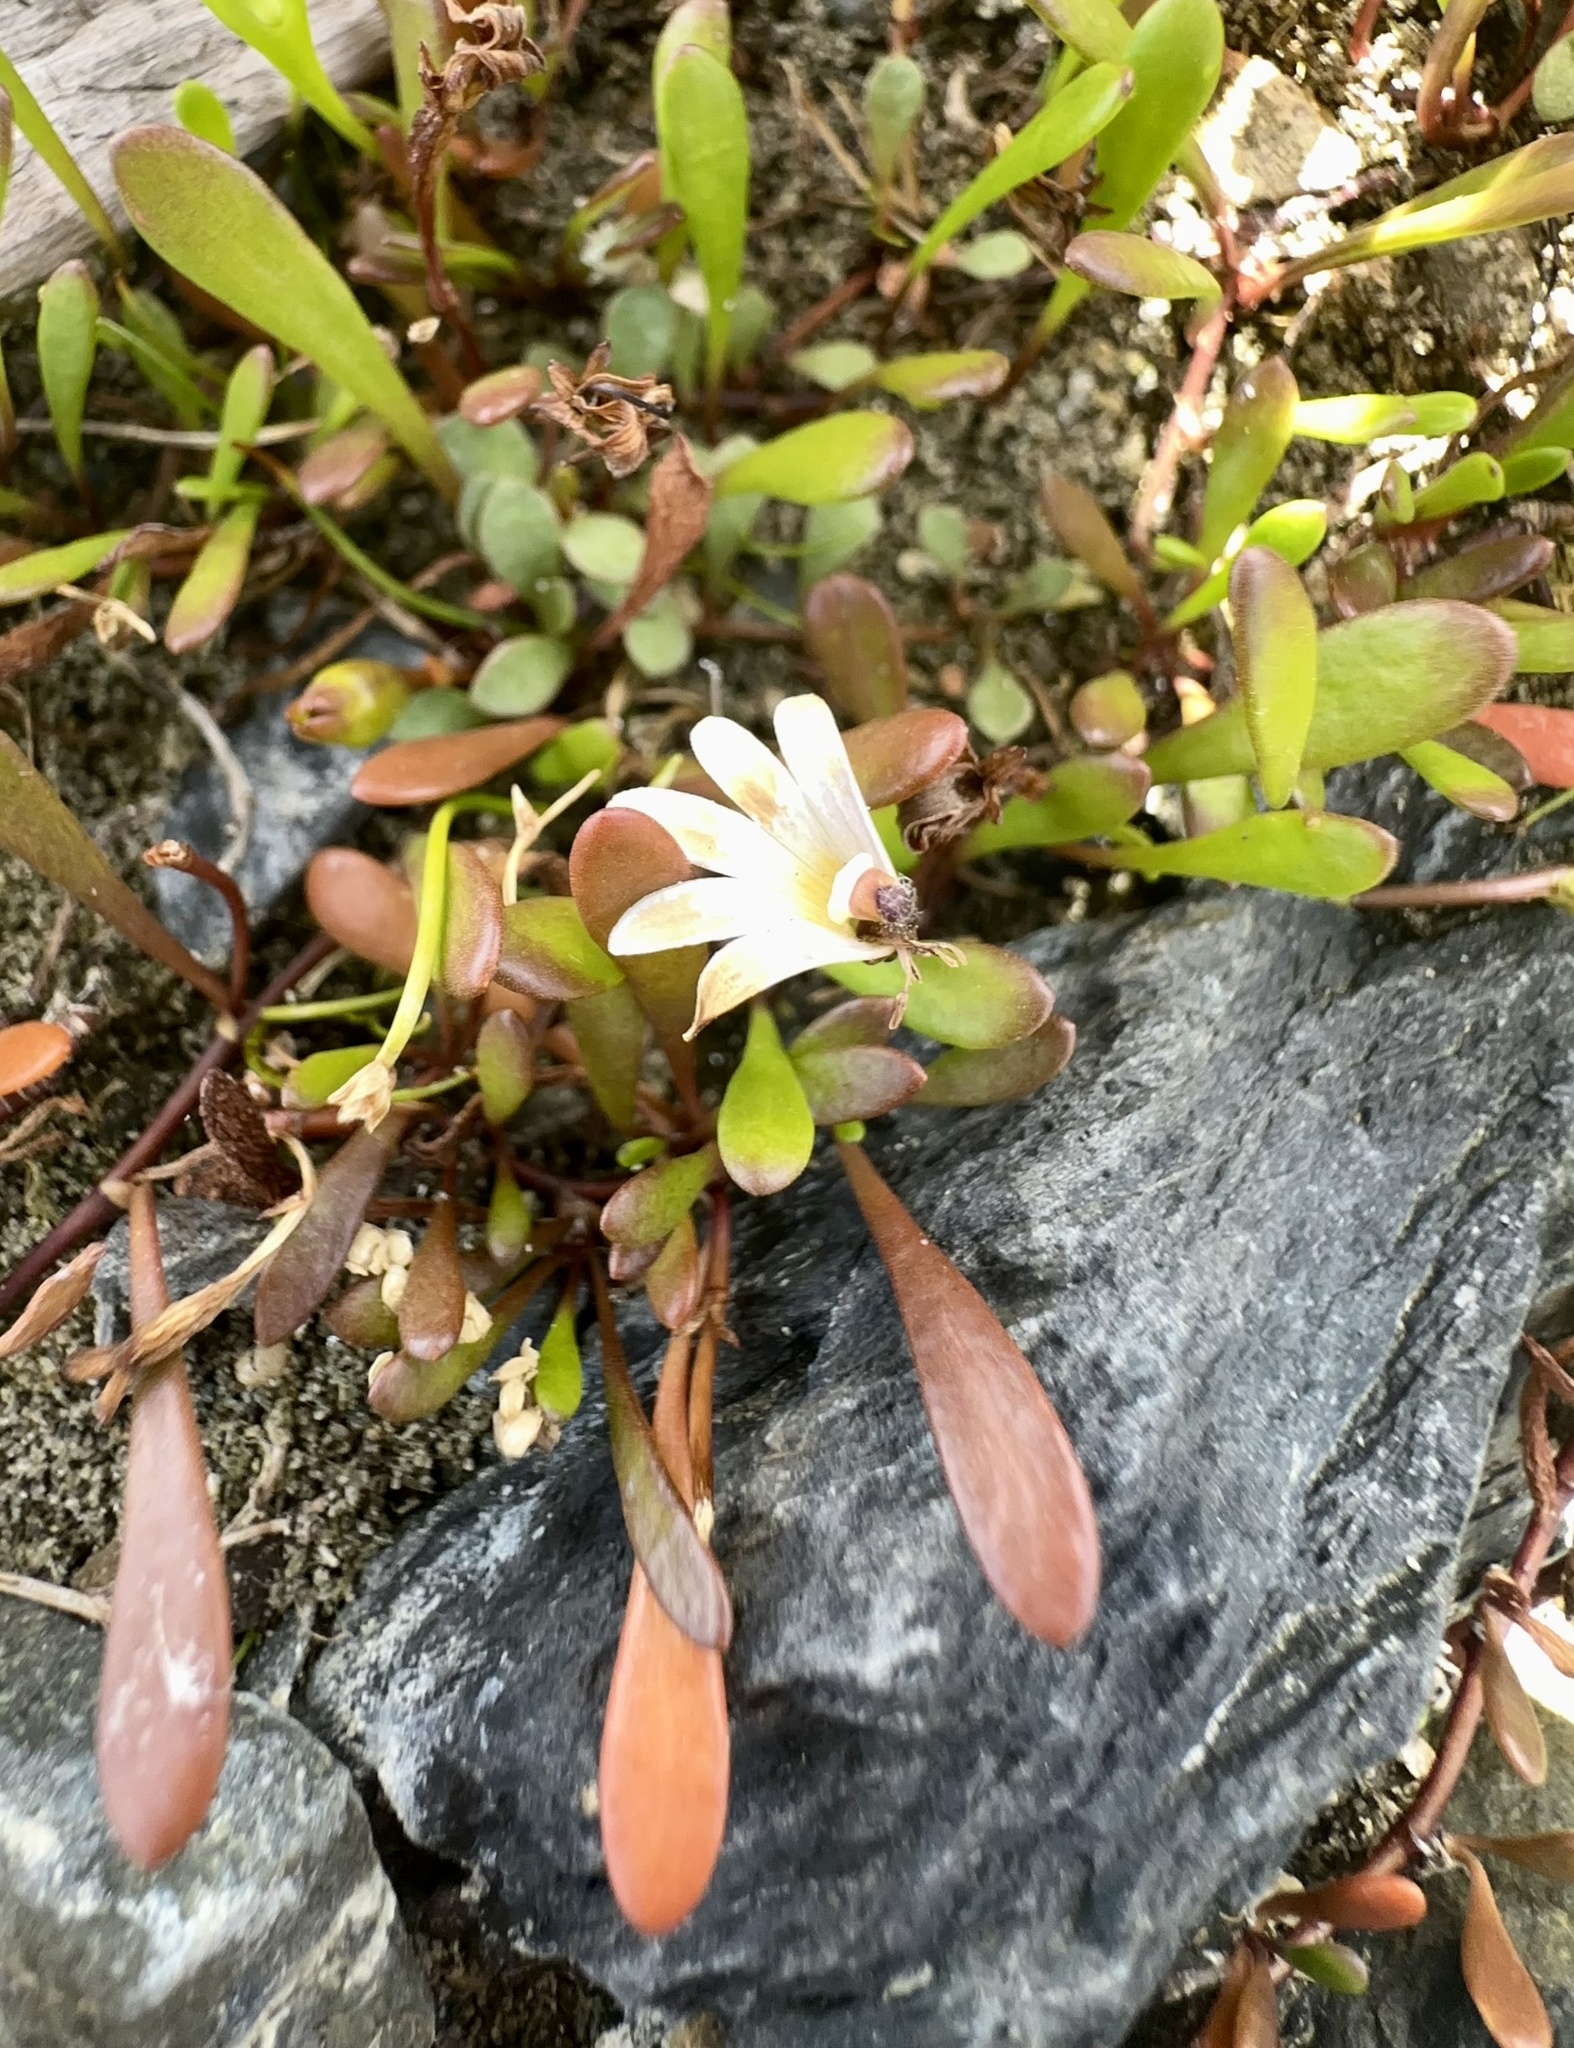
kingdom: Plantae
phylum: Tracheophyta
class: Magnoliopsida
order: Asterales
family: Goodeniaceae
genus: Goodenia
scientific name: Goodenia radicans
